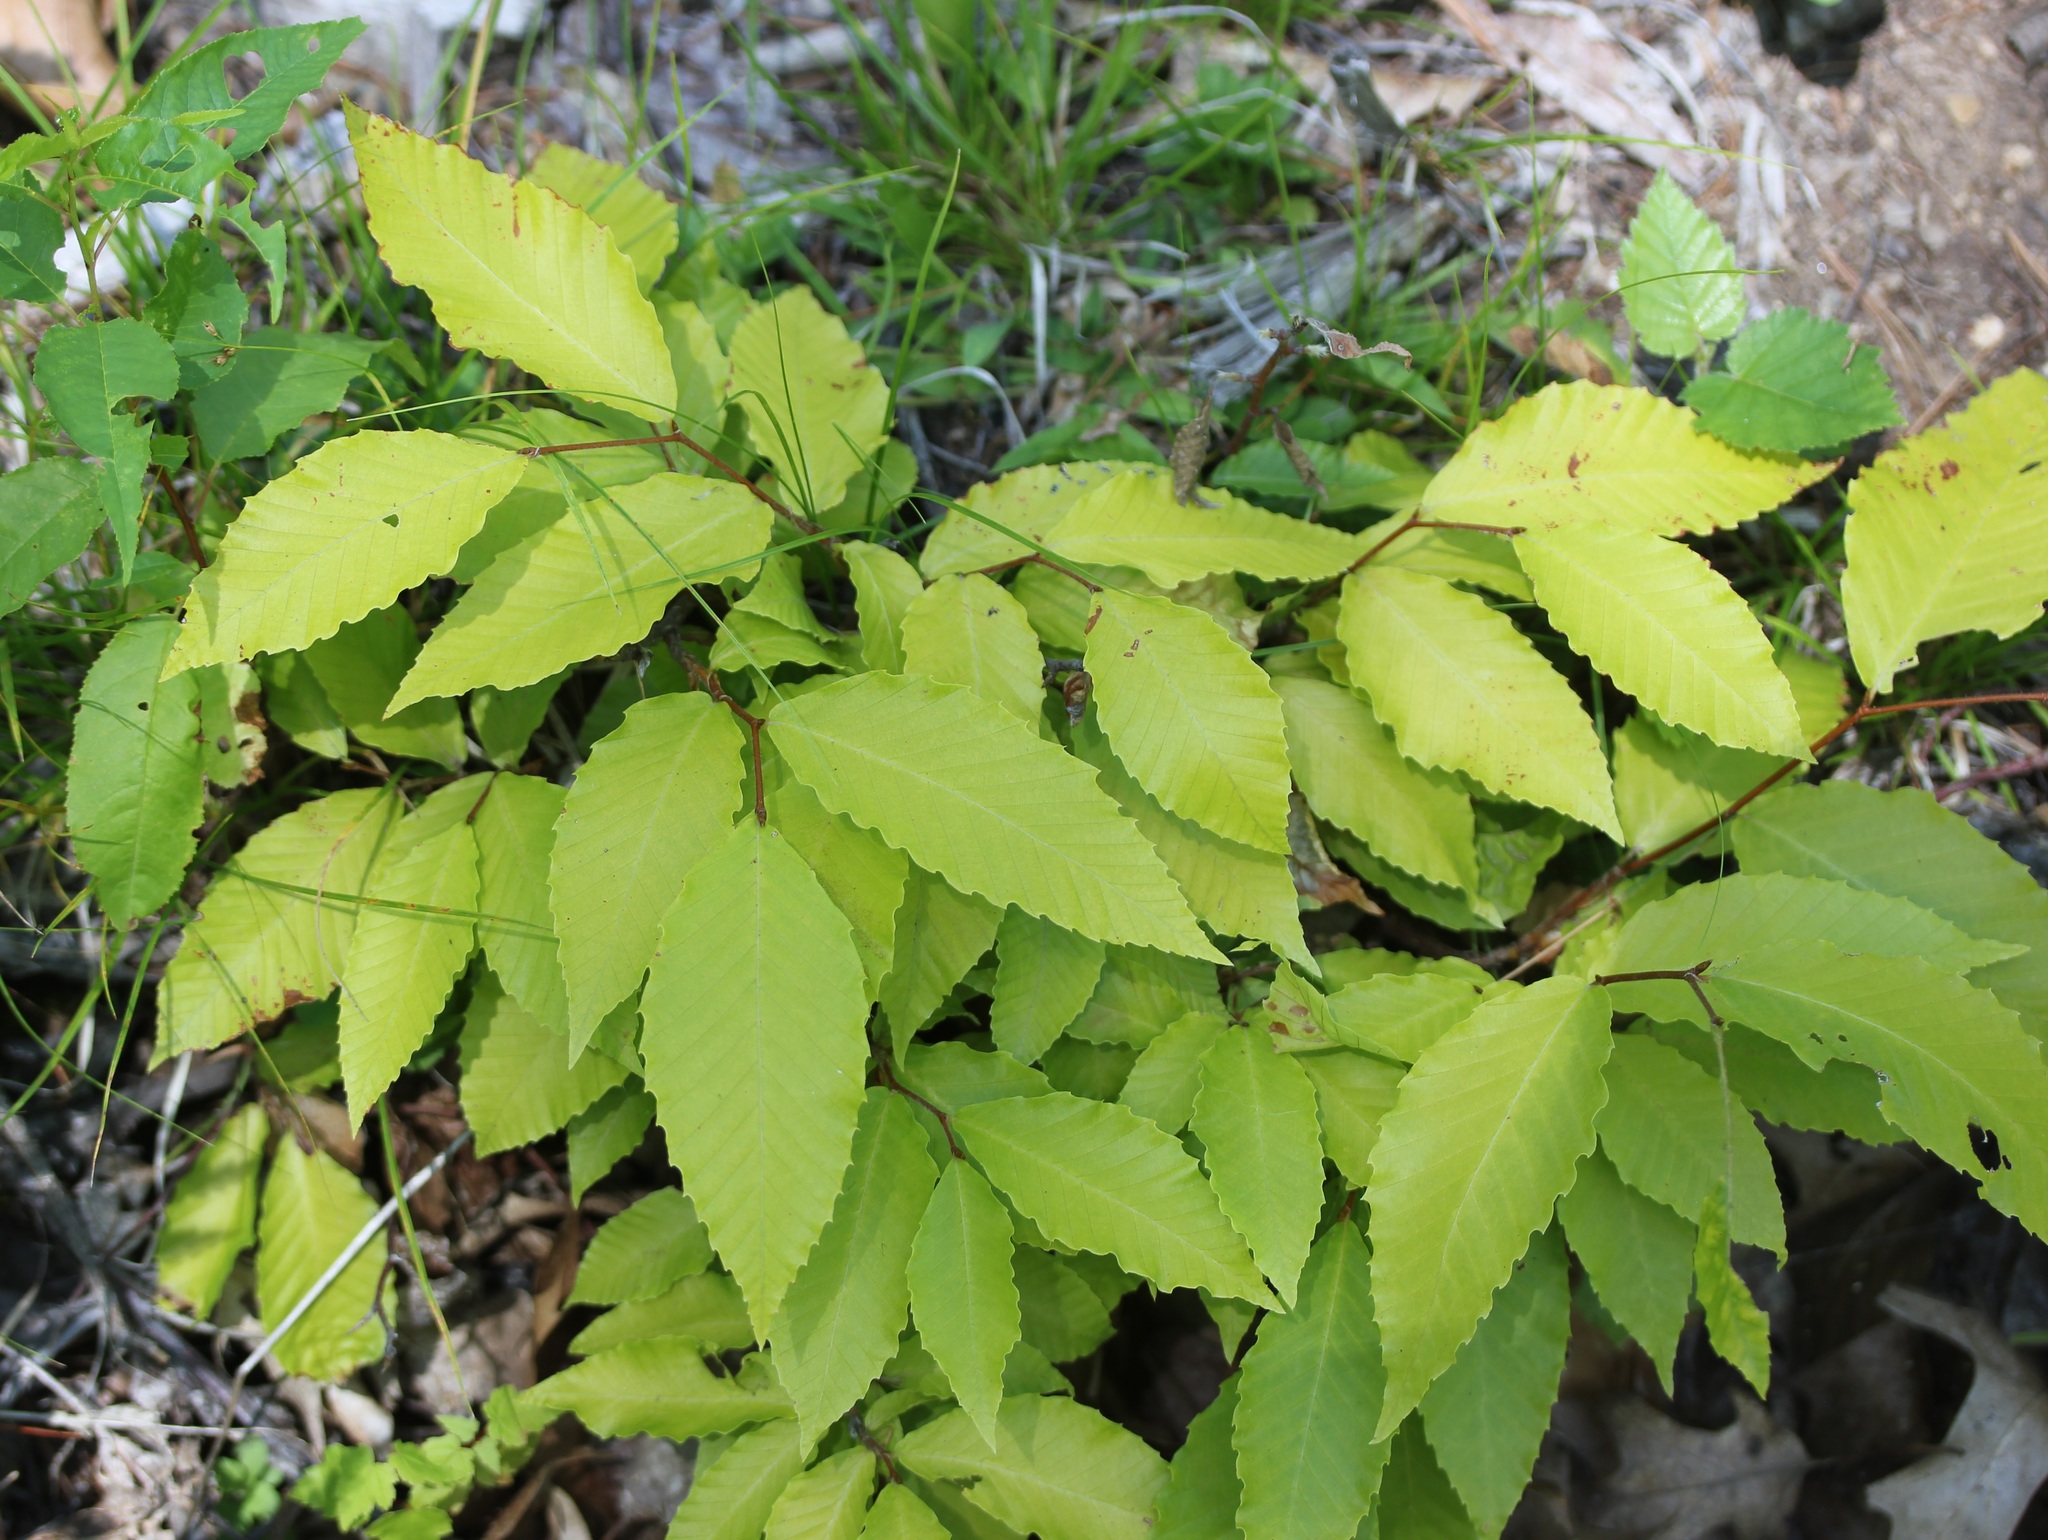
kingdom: Plantae
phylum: Tracheophyta
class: Magnoliopsida
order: Fagales
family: Fagaceae
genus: Fagus
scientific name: Fagus grandifolia
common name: American beech
